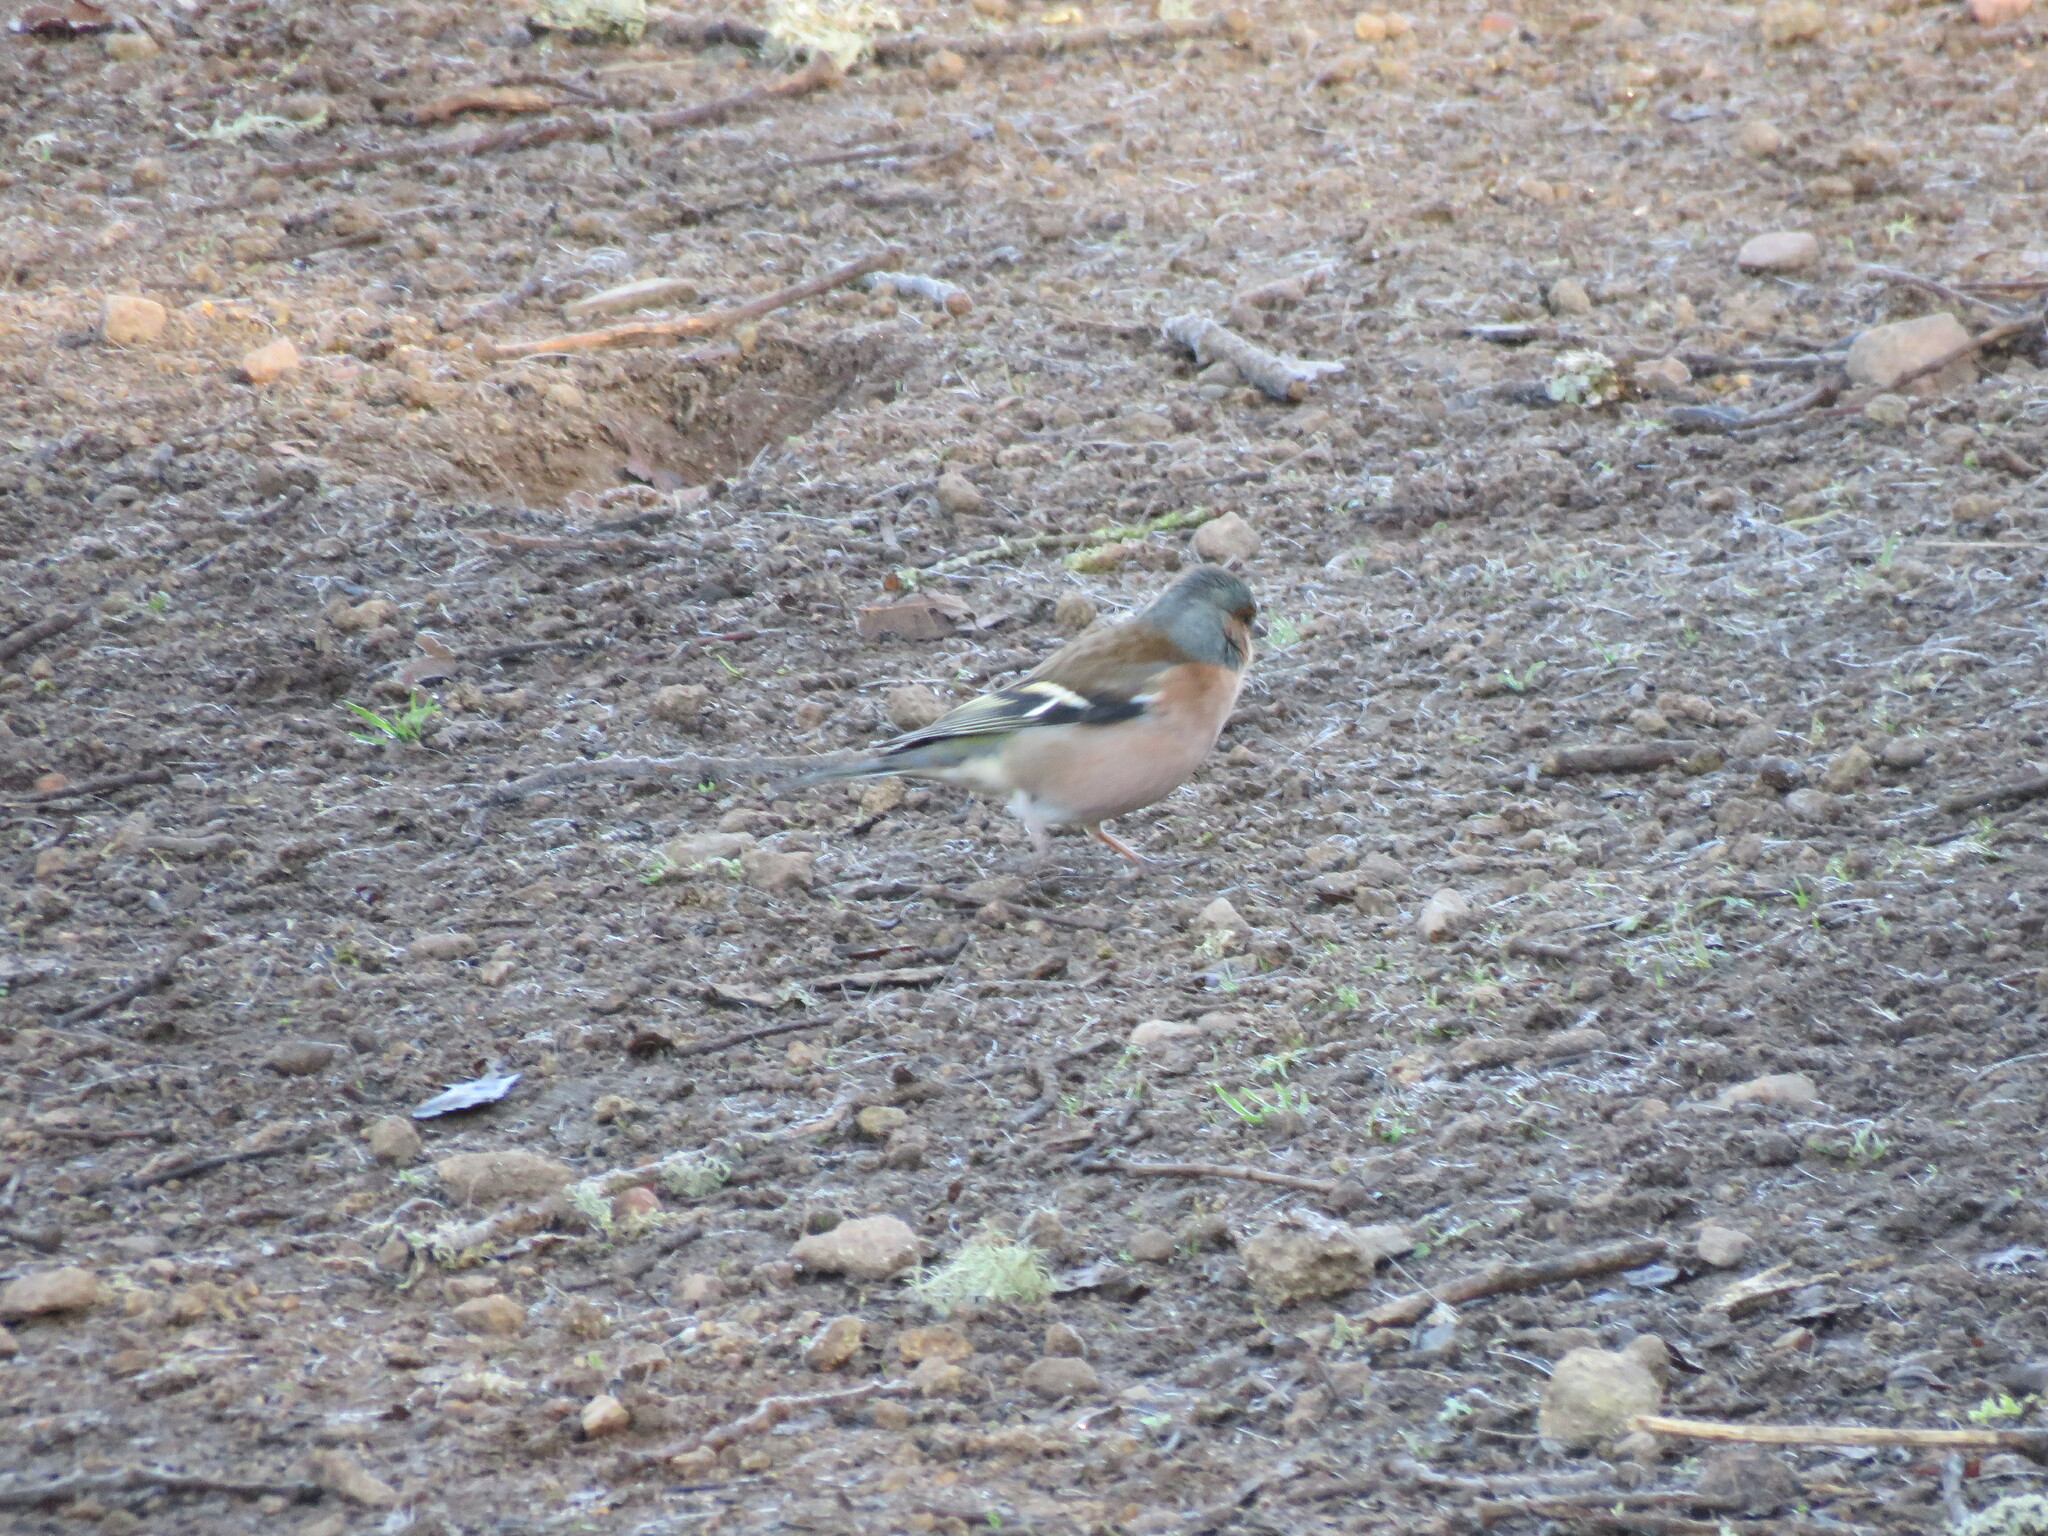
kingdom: Animalia
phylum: Chordata
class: Aves
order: Passeriformes
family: Fringillidae
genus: Fringilla
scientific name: Fringilla coelebs
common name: Common chaffinch
